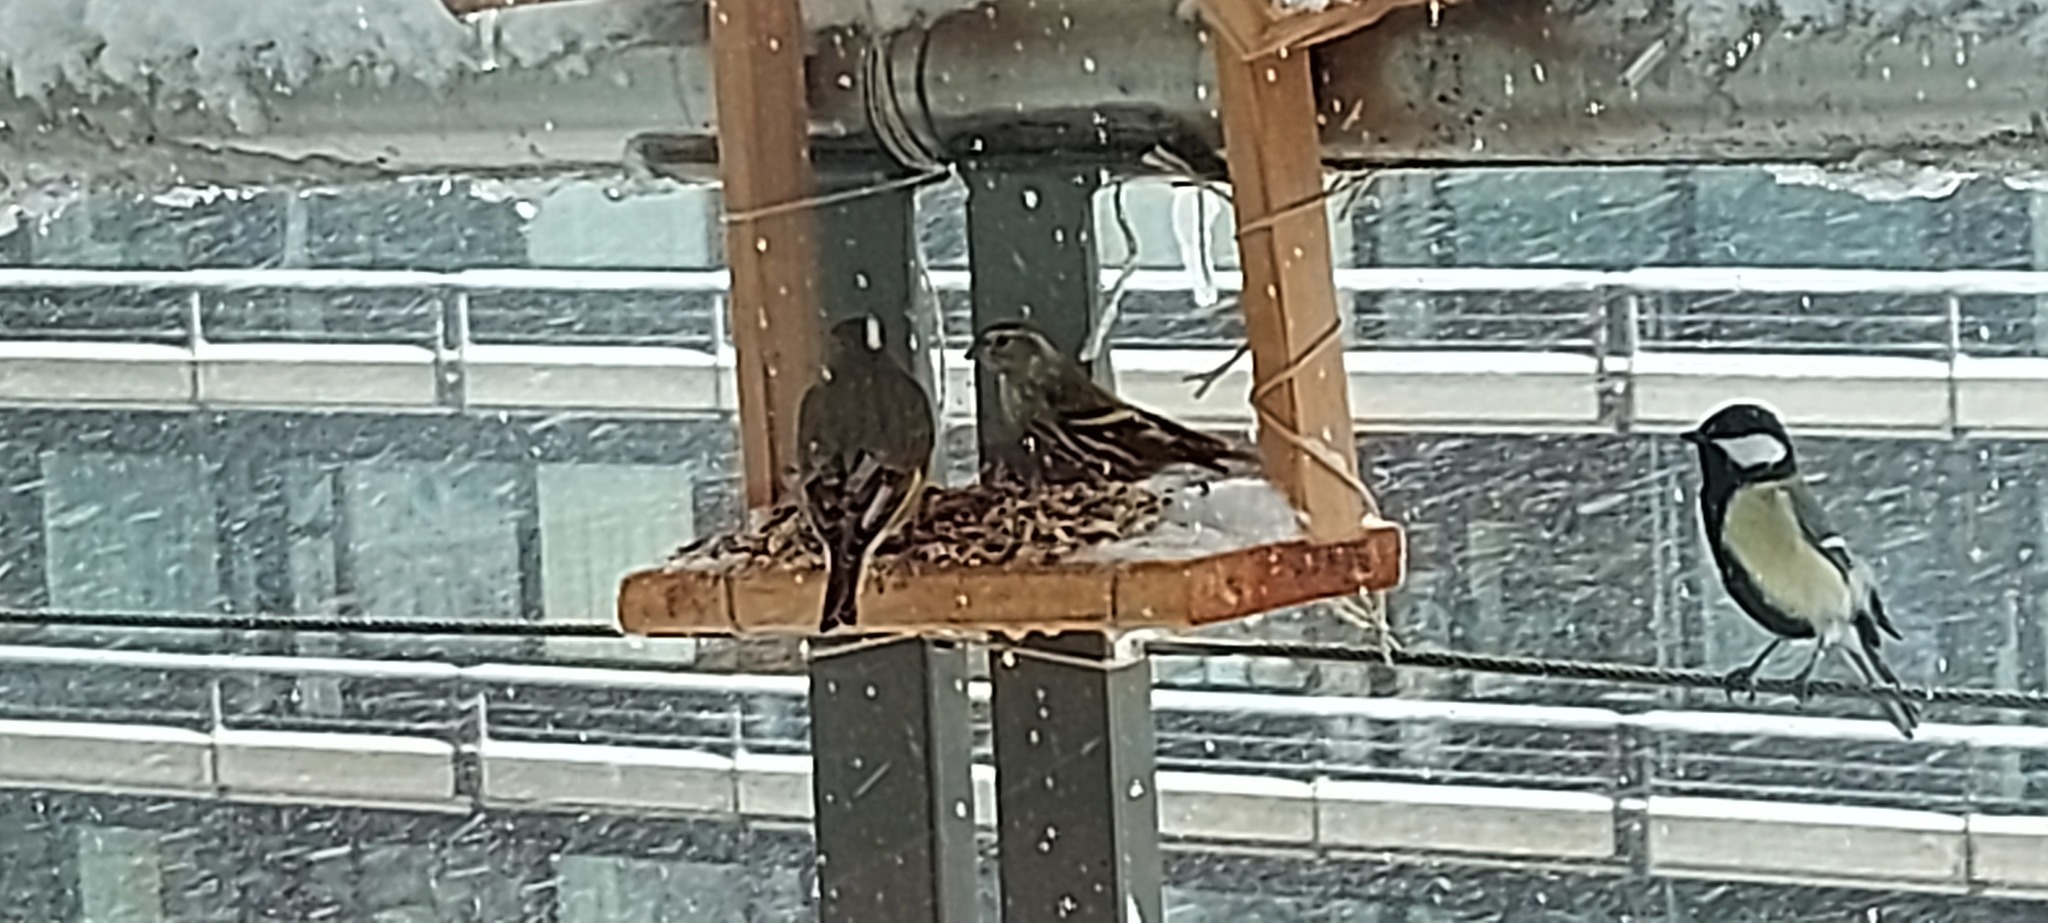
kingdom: Animalia
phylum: Chordata
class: Aves
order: Passeriformes
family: Paridae
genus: Parus
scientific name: Parus major
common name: Great tit
